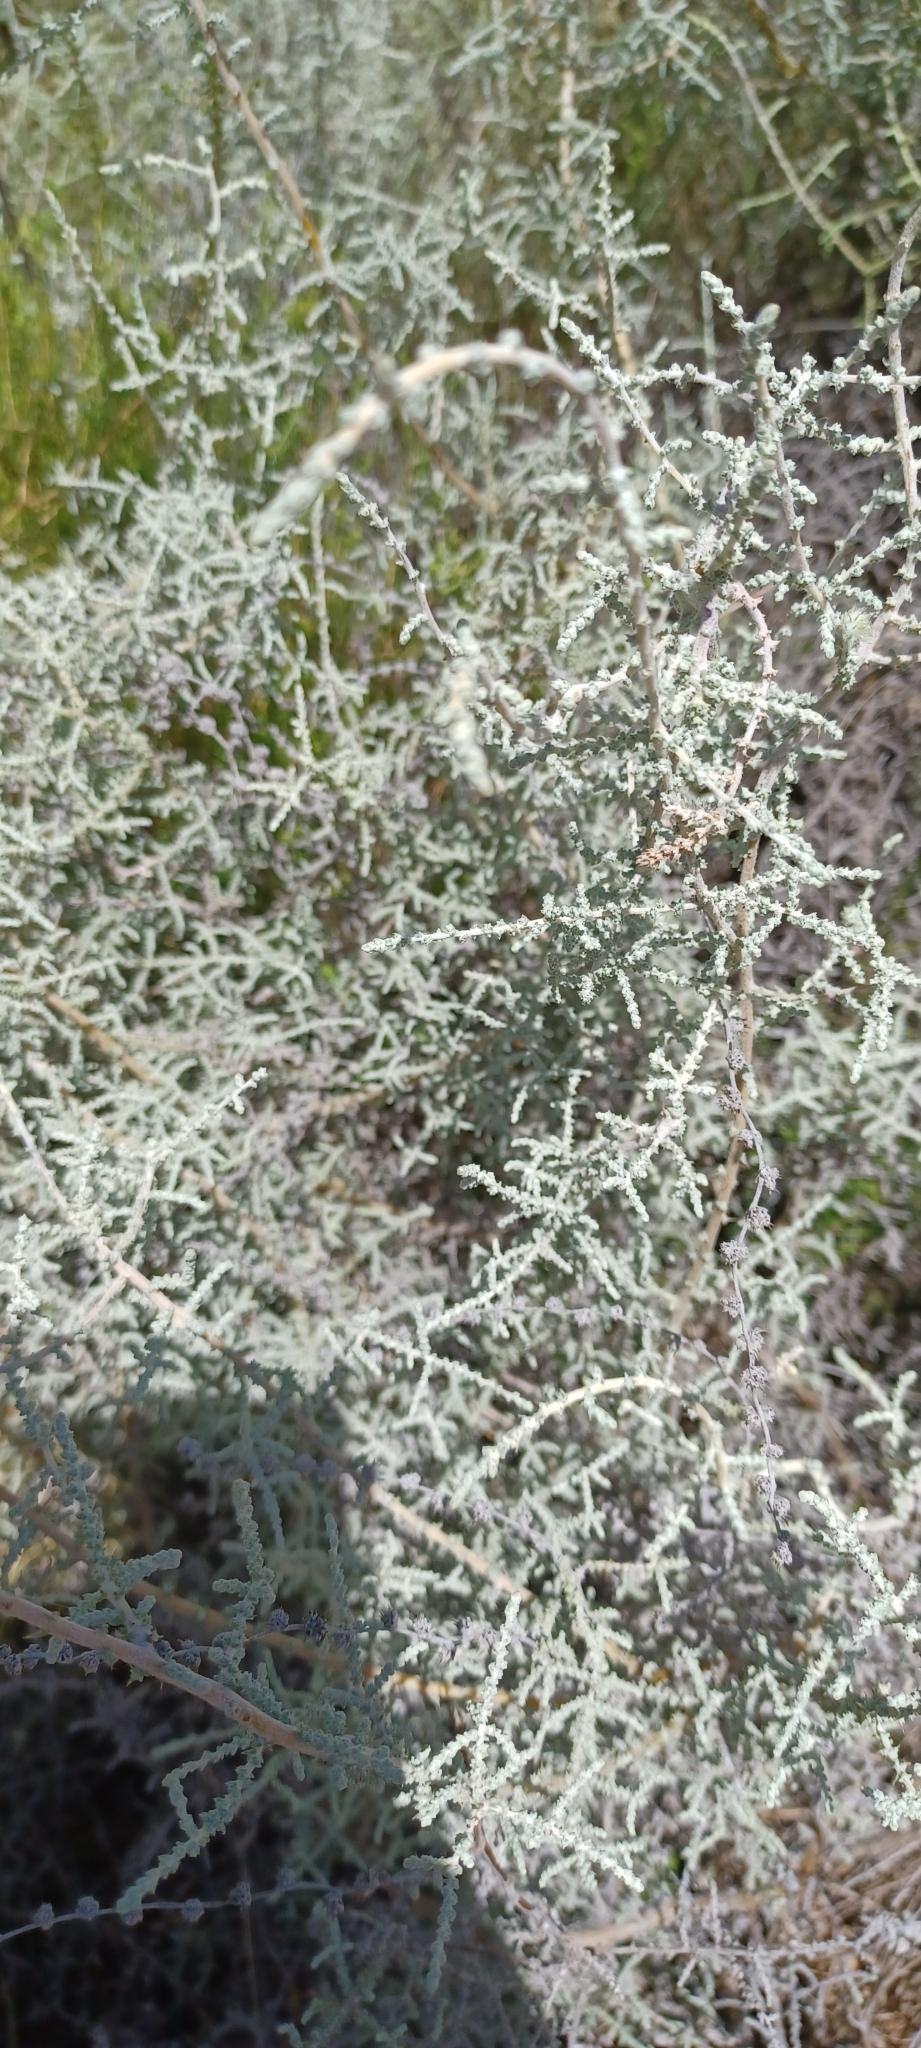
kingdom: Plantae
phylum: Tracheophyta
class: Magnoliopsida
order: Asterales
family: Asteraceae
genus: Seriphium
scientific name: Seriphium plumosum
